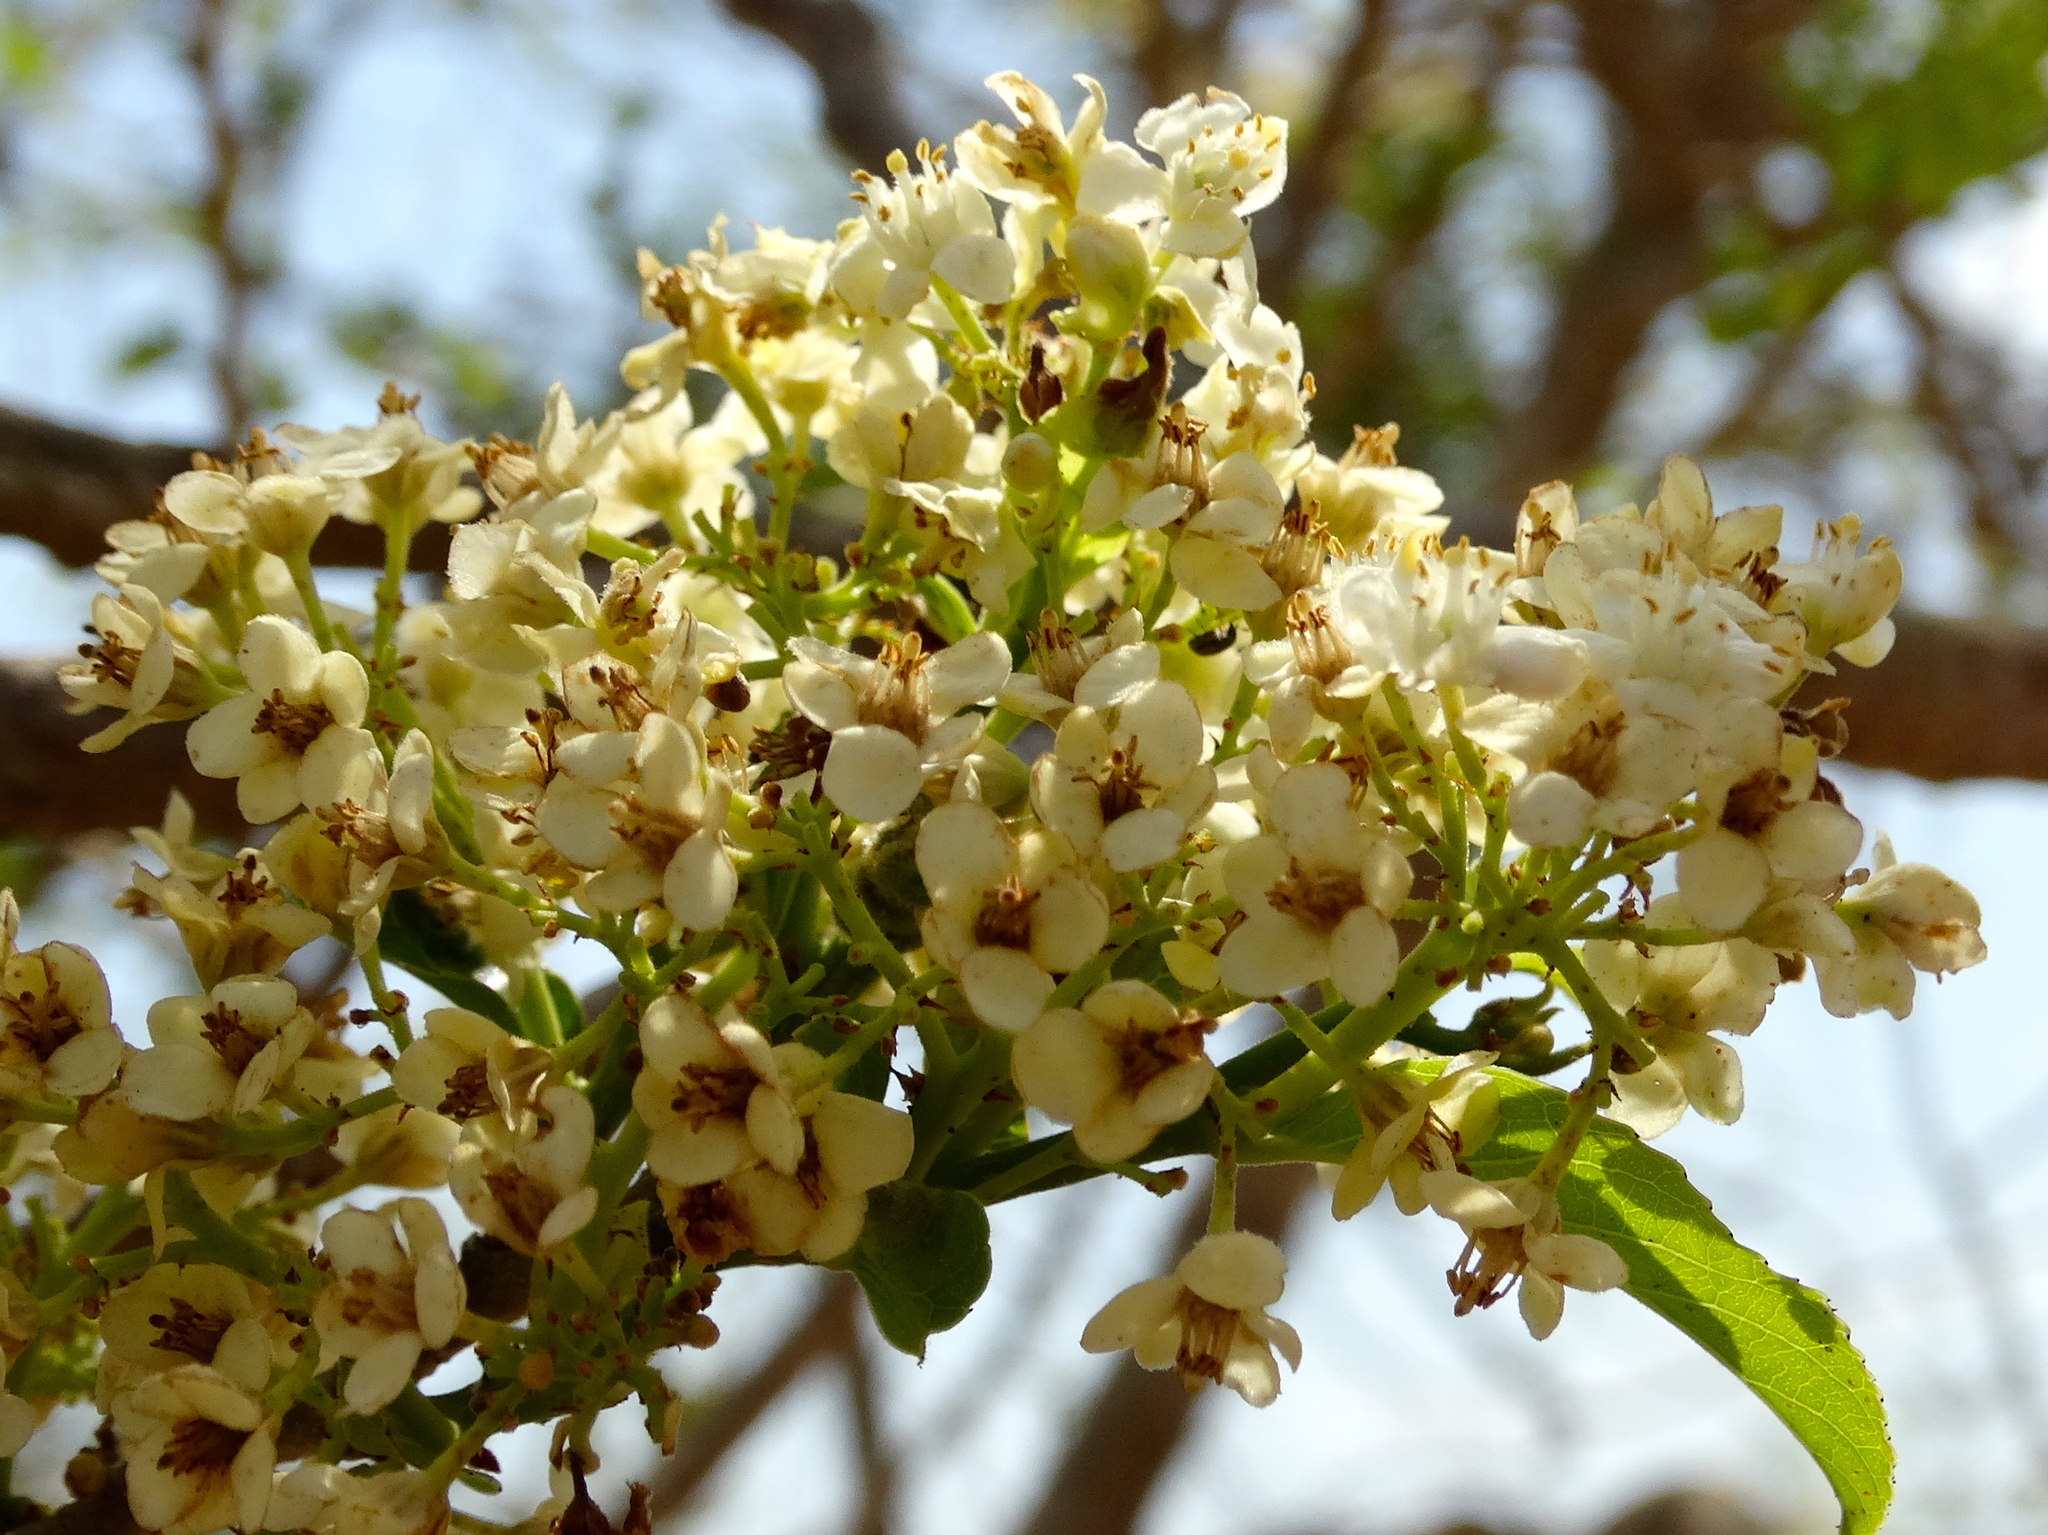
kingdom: Plantae
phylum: Tracheophyta
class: Magnoliopsida
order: Malpighiales
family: Salicaceae
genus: Casearia
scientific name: Casearia corymbosa
